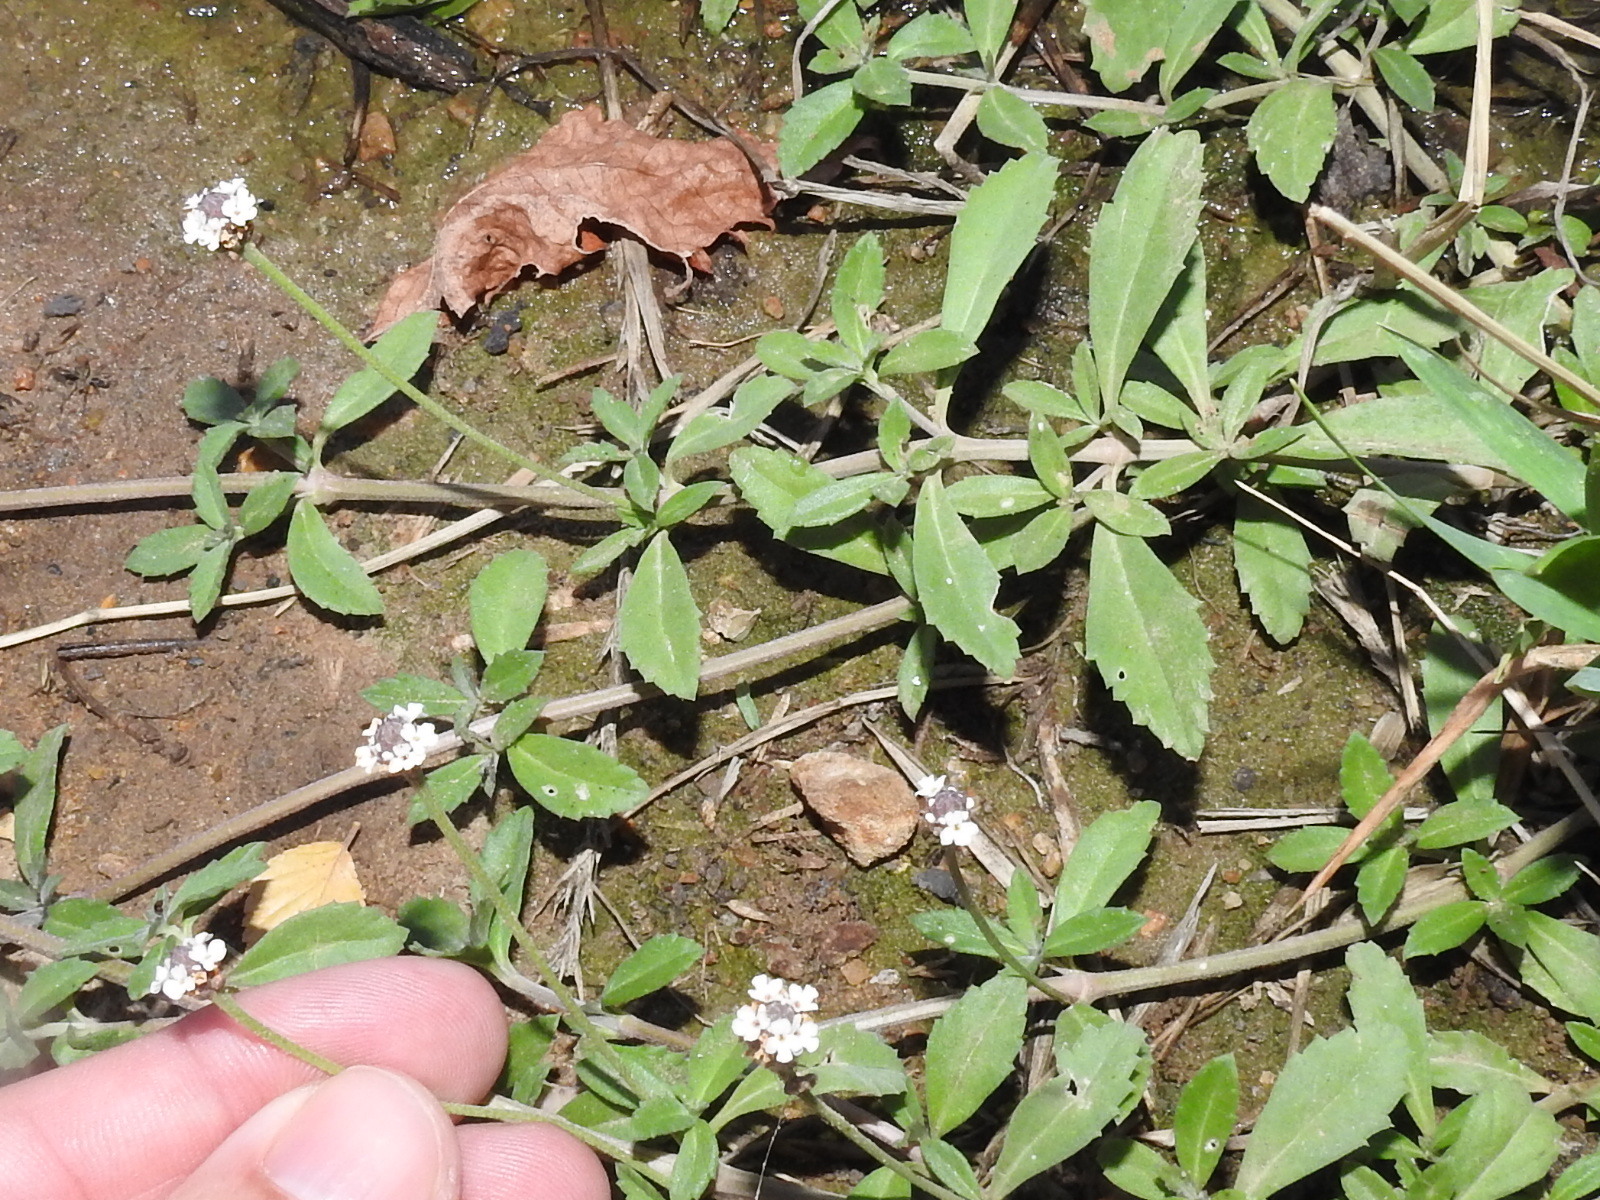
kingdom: Plantae
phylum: Tracheophyta
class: Magnoliopsida
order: Lamiales
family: Verbenaceae
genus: Phyla
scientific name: Phyla nodiflora
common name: Frogfruit
